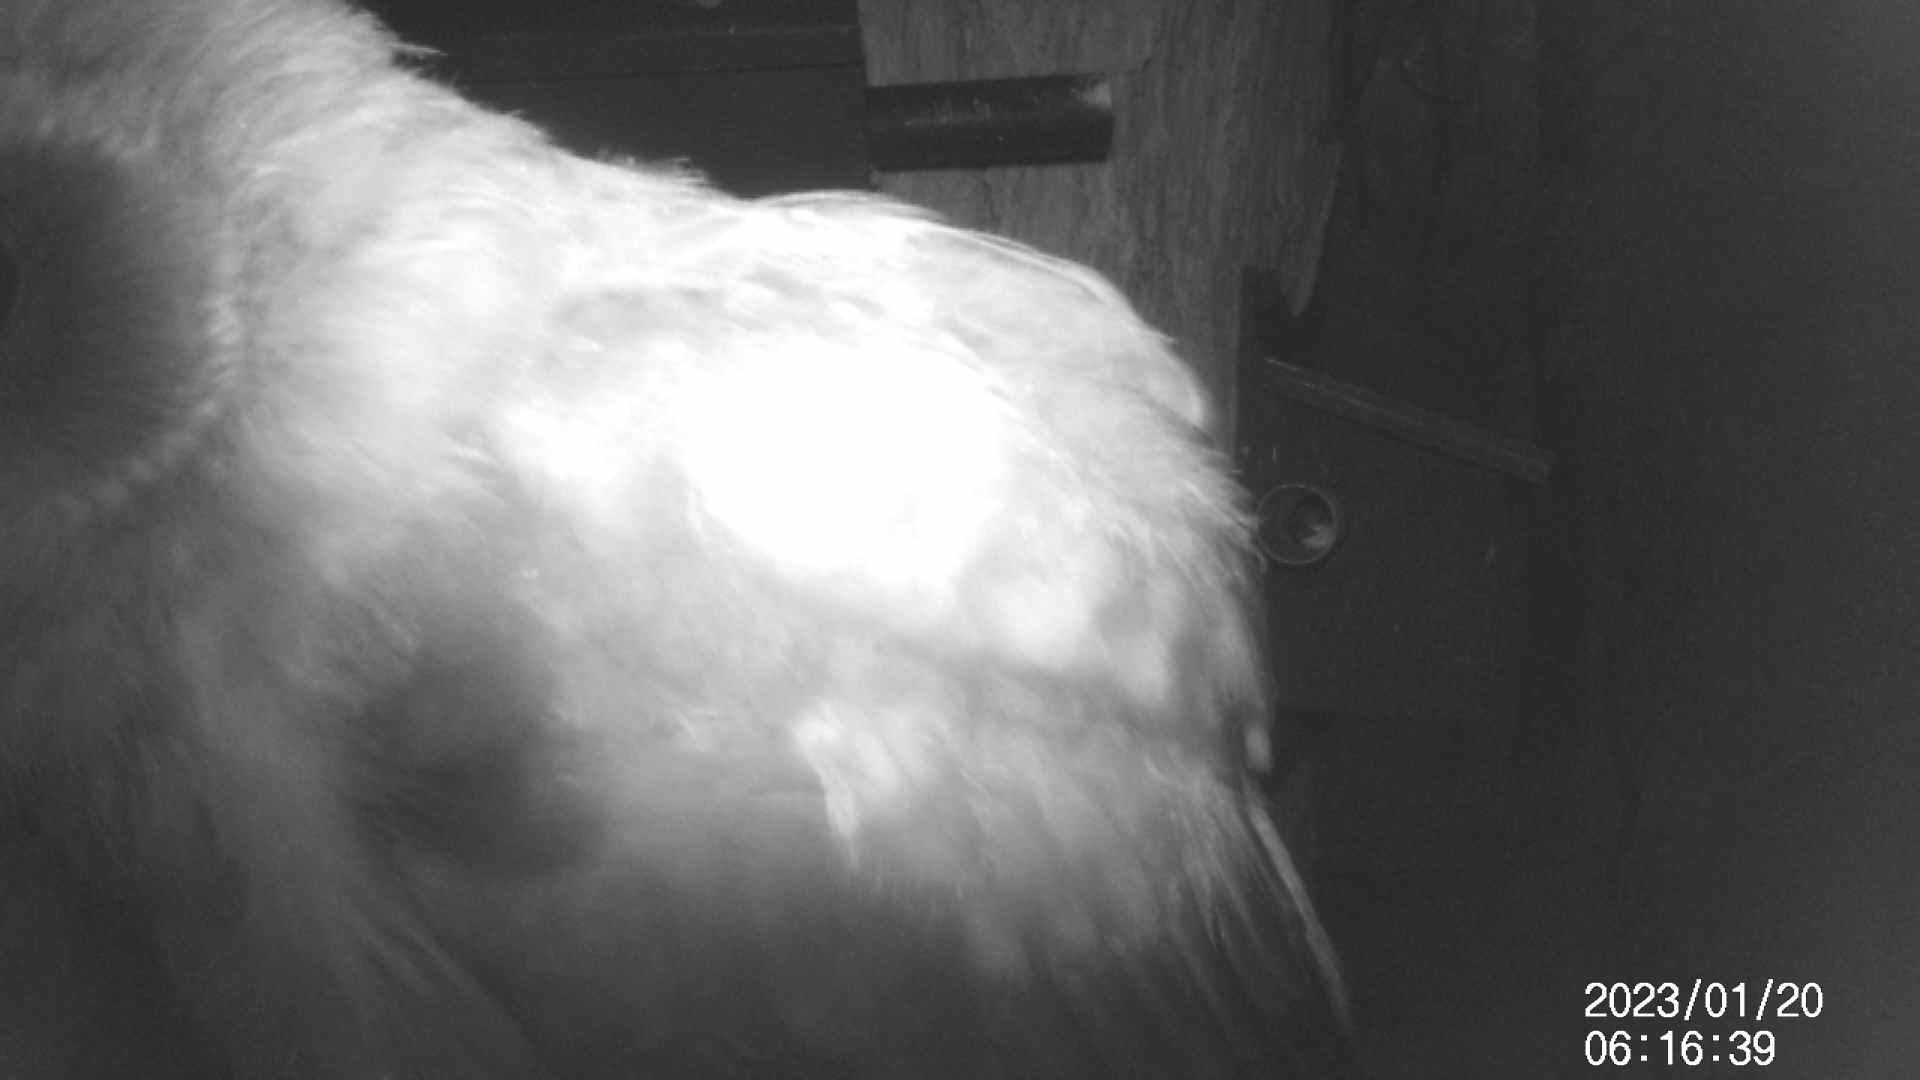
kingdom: Animalia
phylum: Chordata
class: Aves
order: Strigiformes
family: Strigidae
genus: Ninox
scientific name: Ninox boobook
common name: Southern boobook
